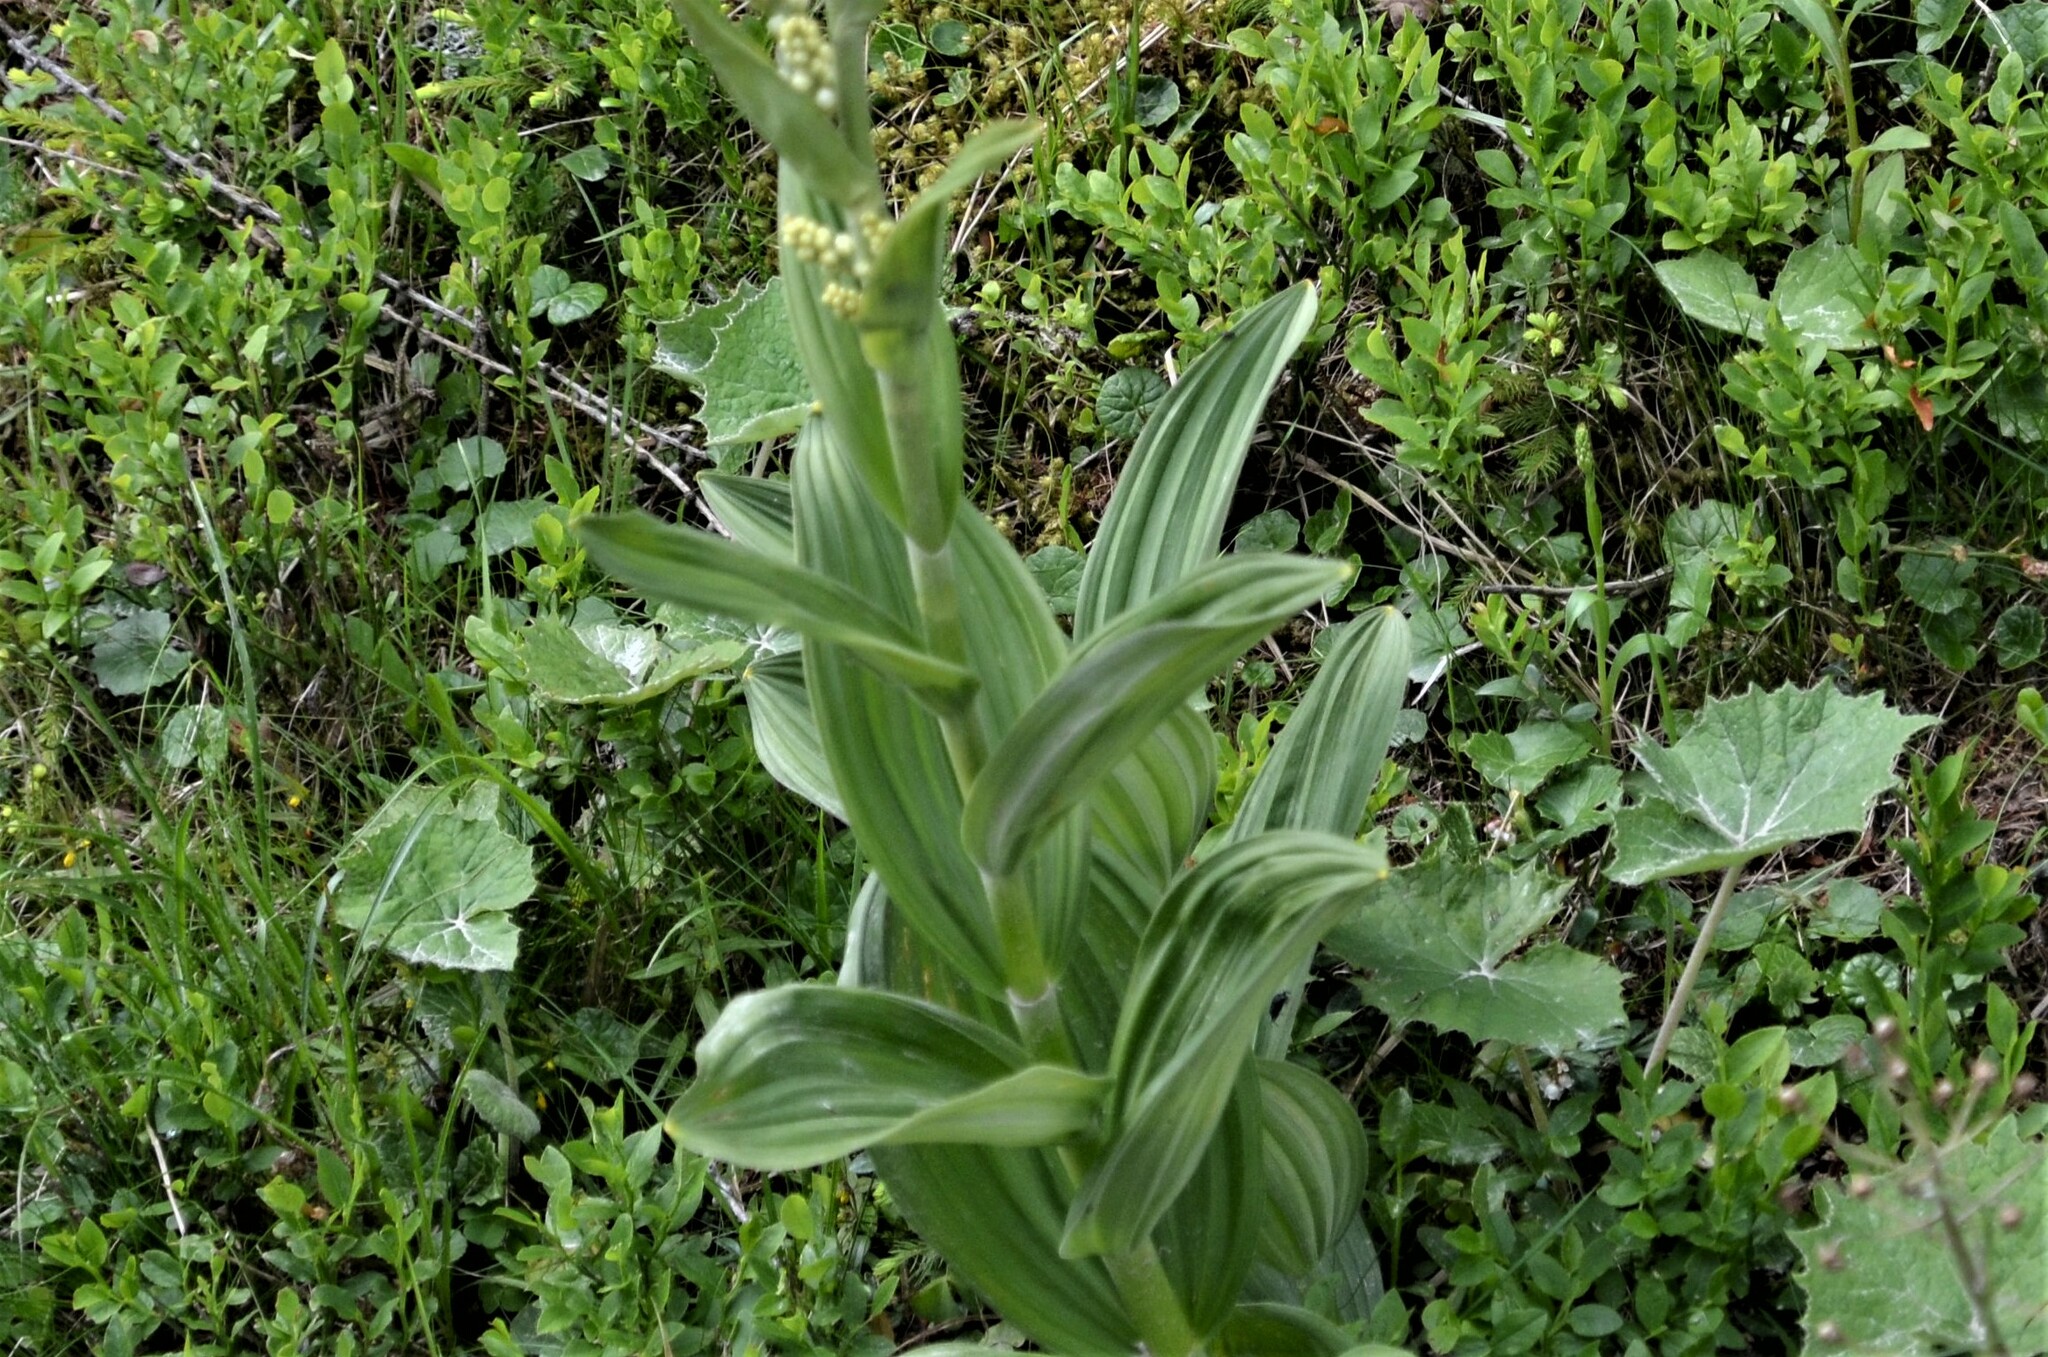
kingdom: Plantae
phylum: Tracheophyta
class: Liliopsida
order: Liliales
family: Melanthiaceae
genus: Veratrum
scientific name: Veratrum album
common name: White veratrum
